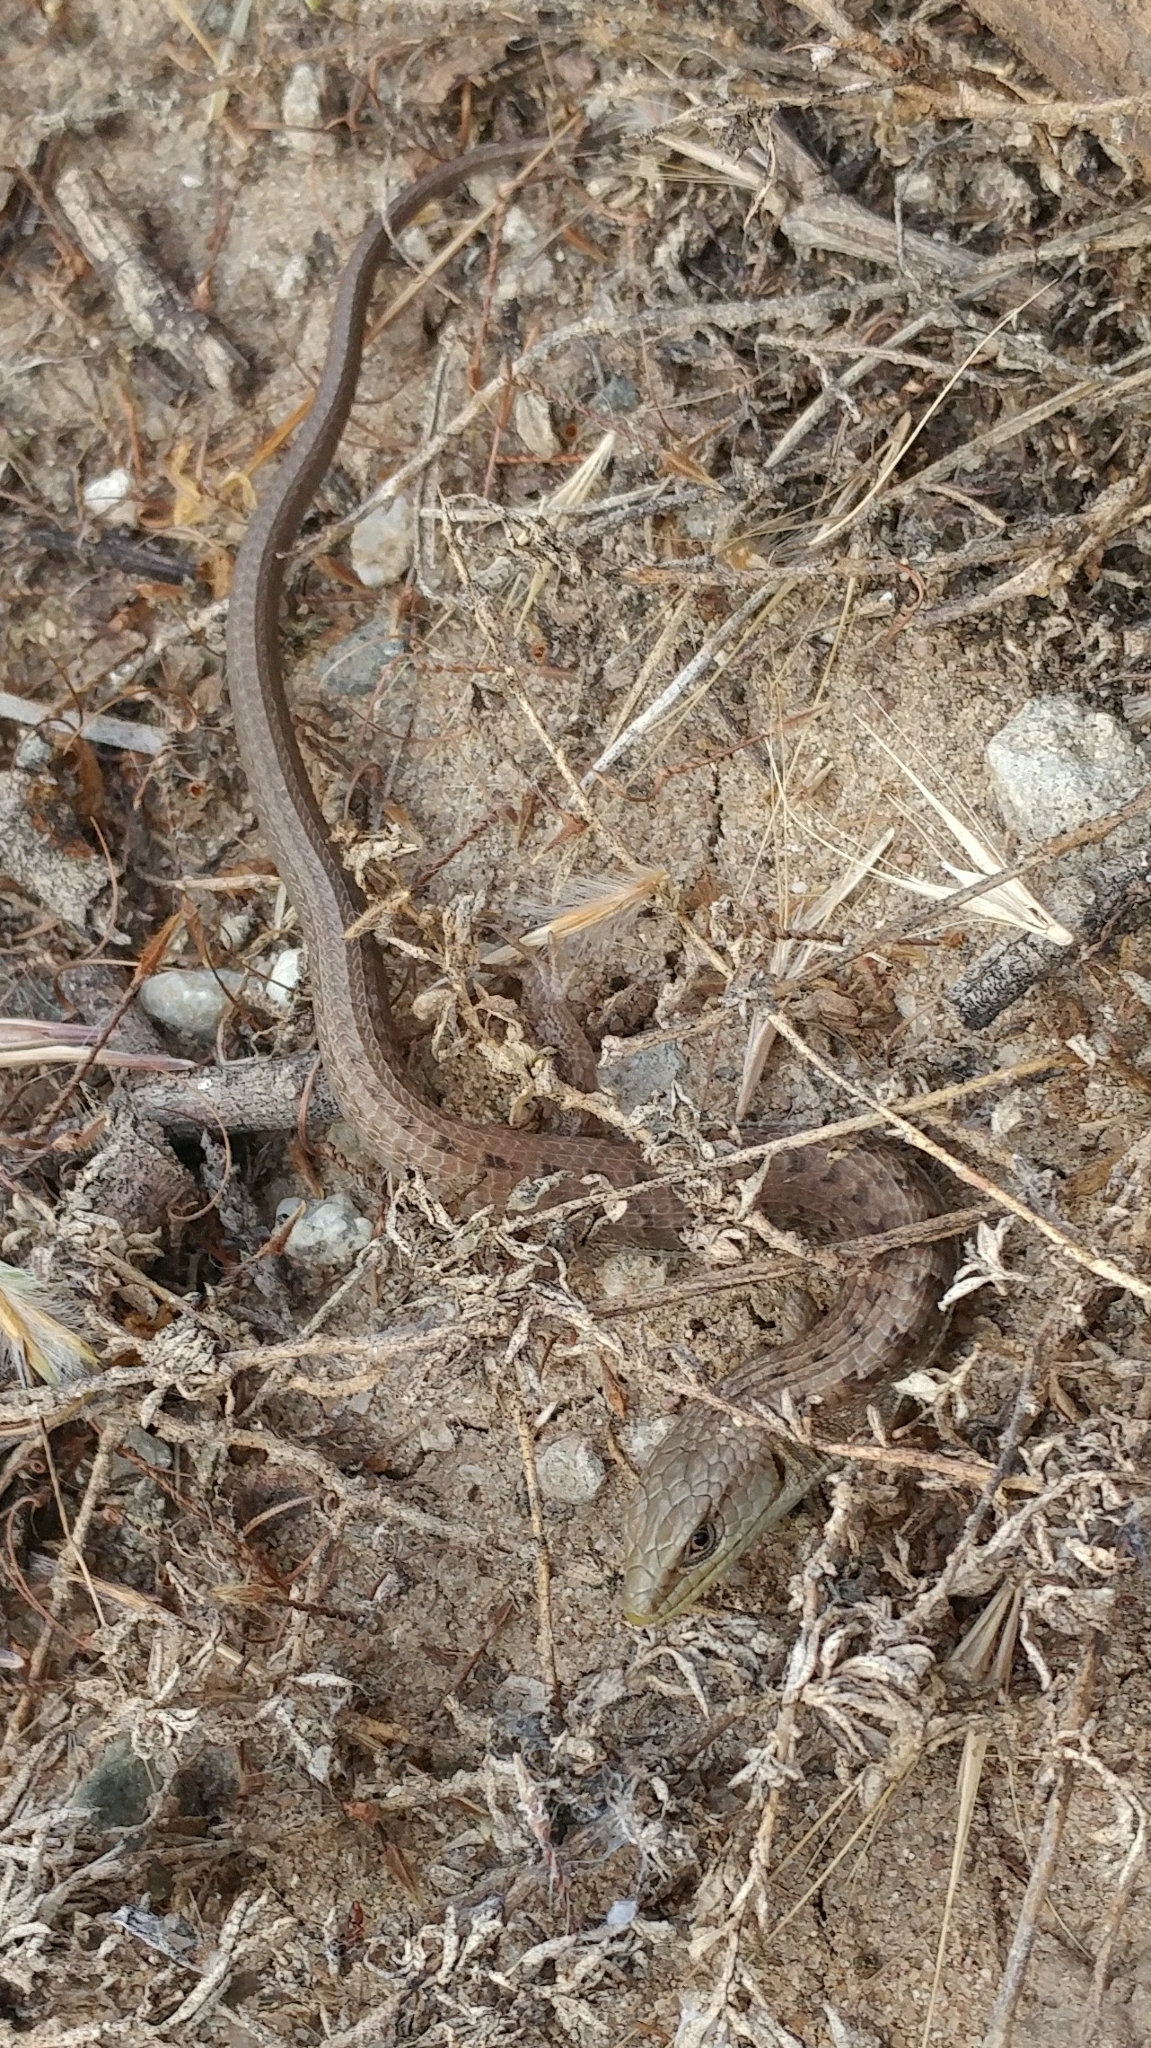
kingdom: Animalia
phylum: Chordata
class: Squamata
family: Anguidae
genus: Elgaria
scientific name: Elgaria multicarinata
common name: Southern alligator lizard
